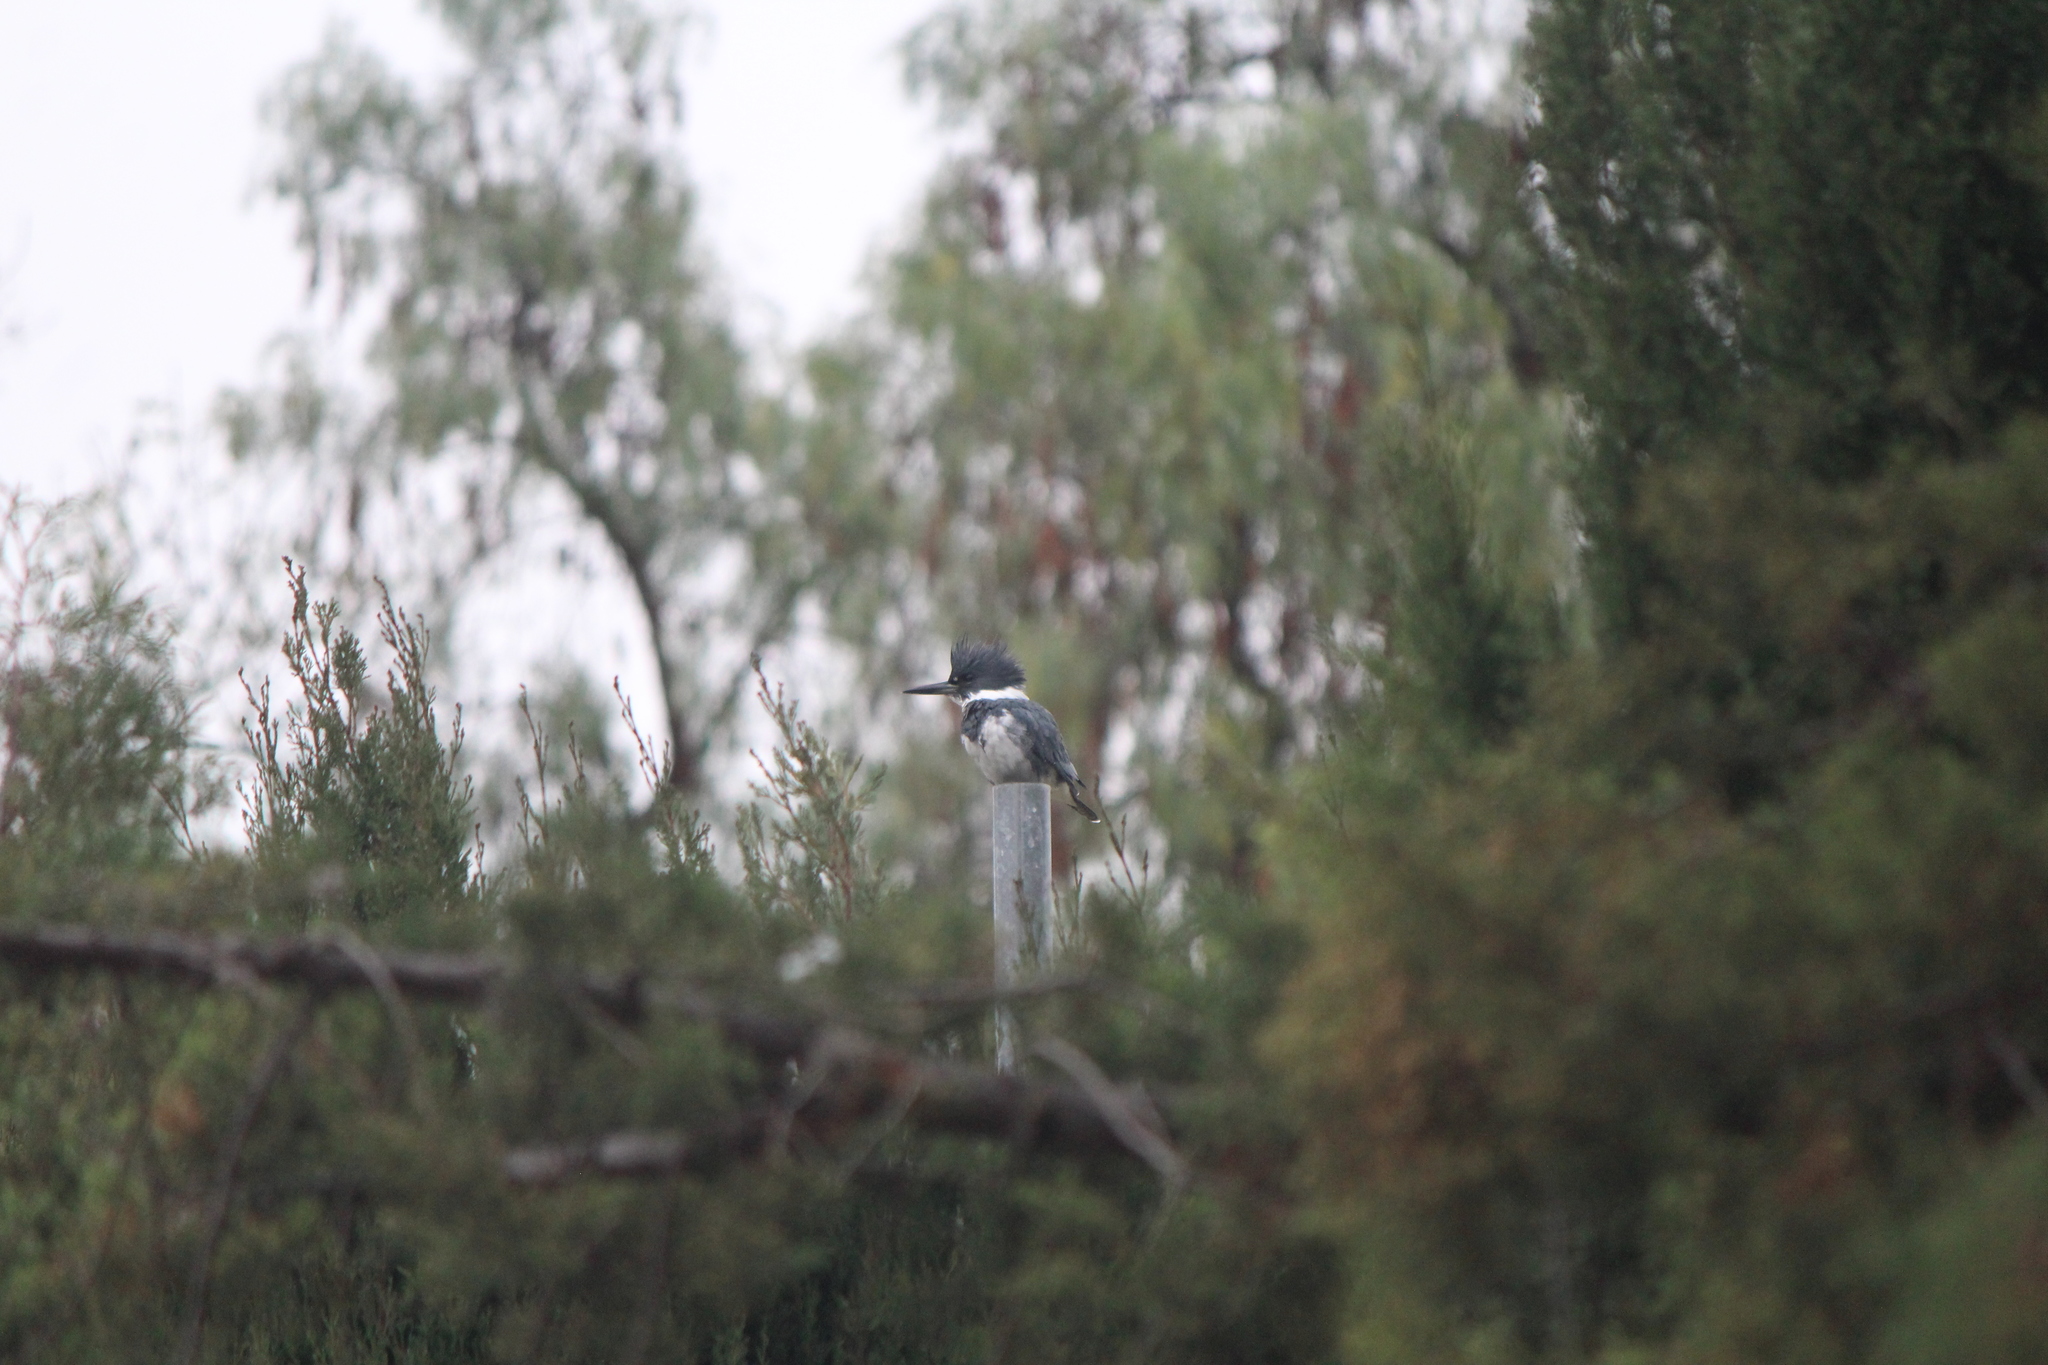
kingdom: Animalia
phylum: Chordata
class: Aves
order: Coraciiformes
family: Alcedinidae
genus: Megaceryle
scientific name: Megaceryle alcyon
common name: Belted kingfisher
